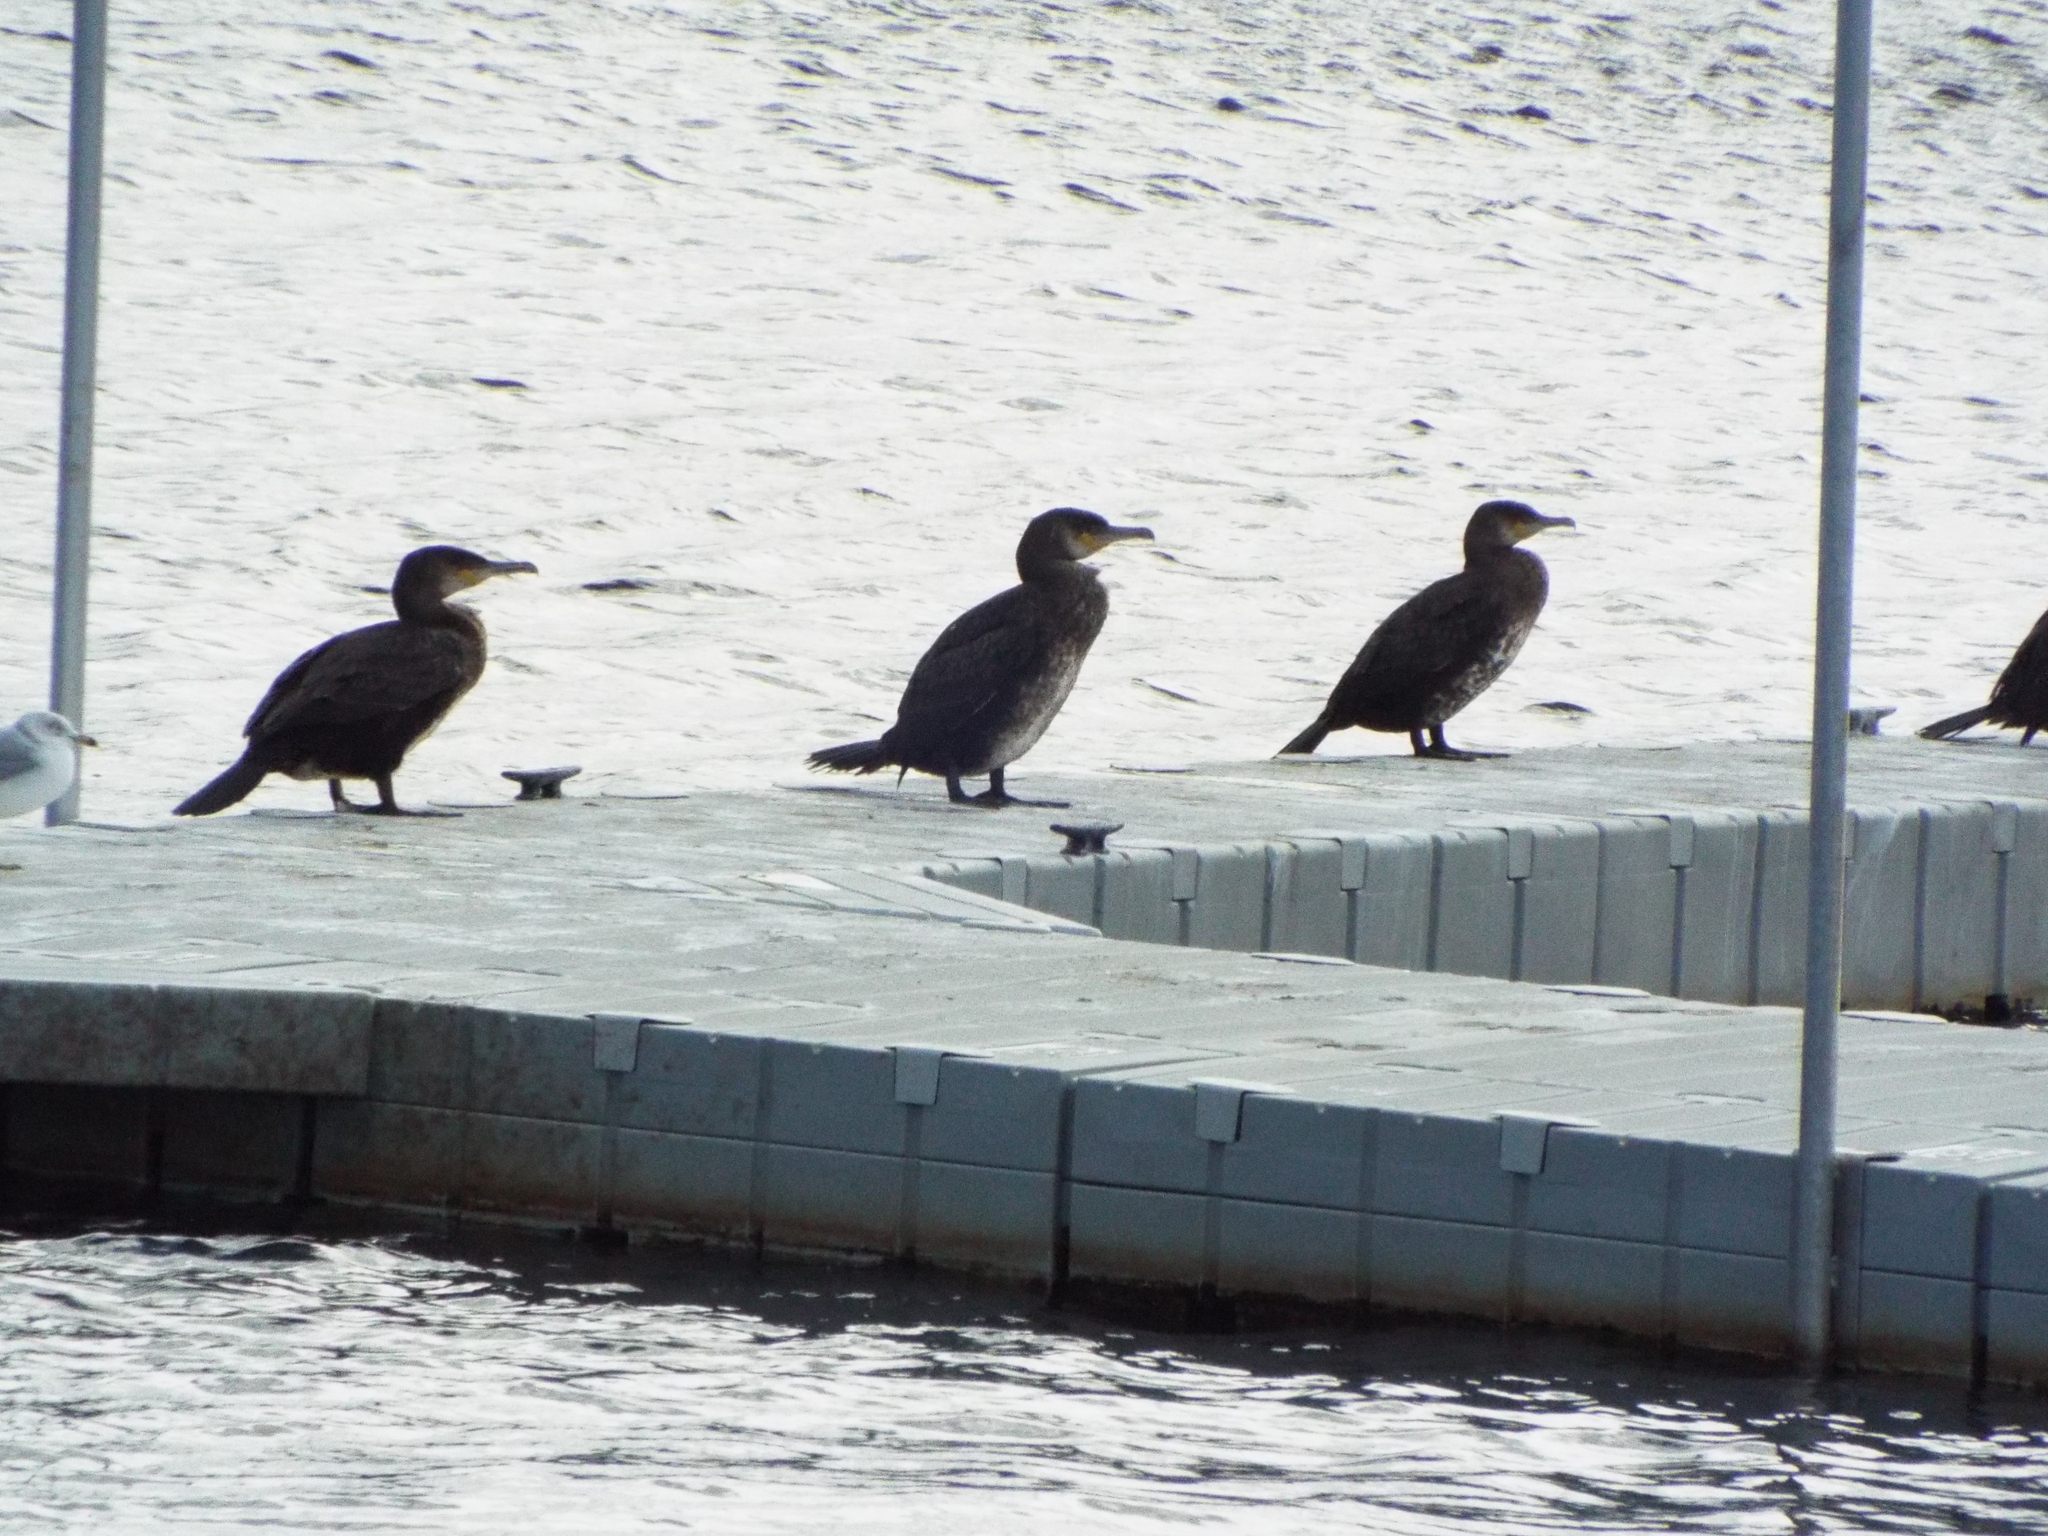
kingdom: Animalia
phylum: Chordata
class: Aves
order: Suliformes
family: Phalacrocoracidae
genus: Phalacrocorax
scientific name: Phalacrocorax carbo
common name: Great cormorant
